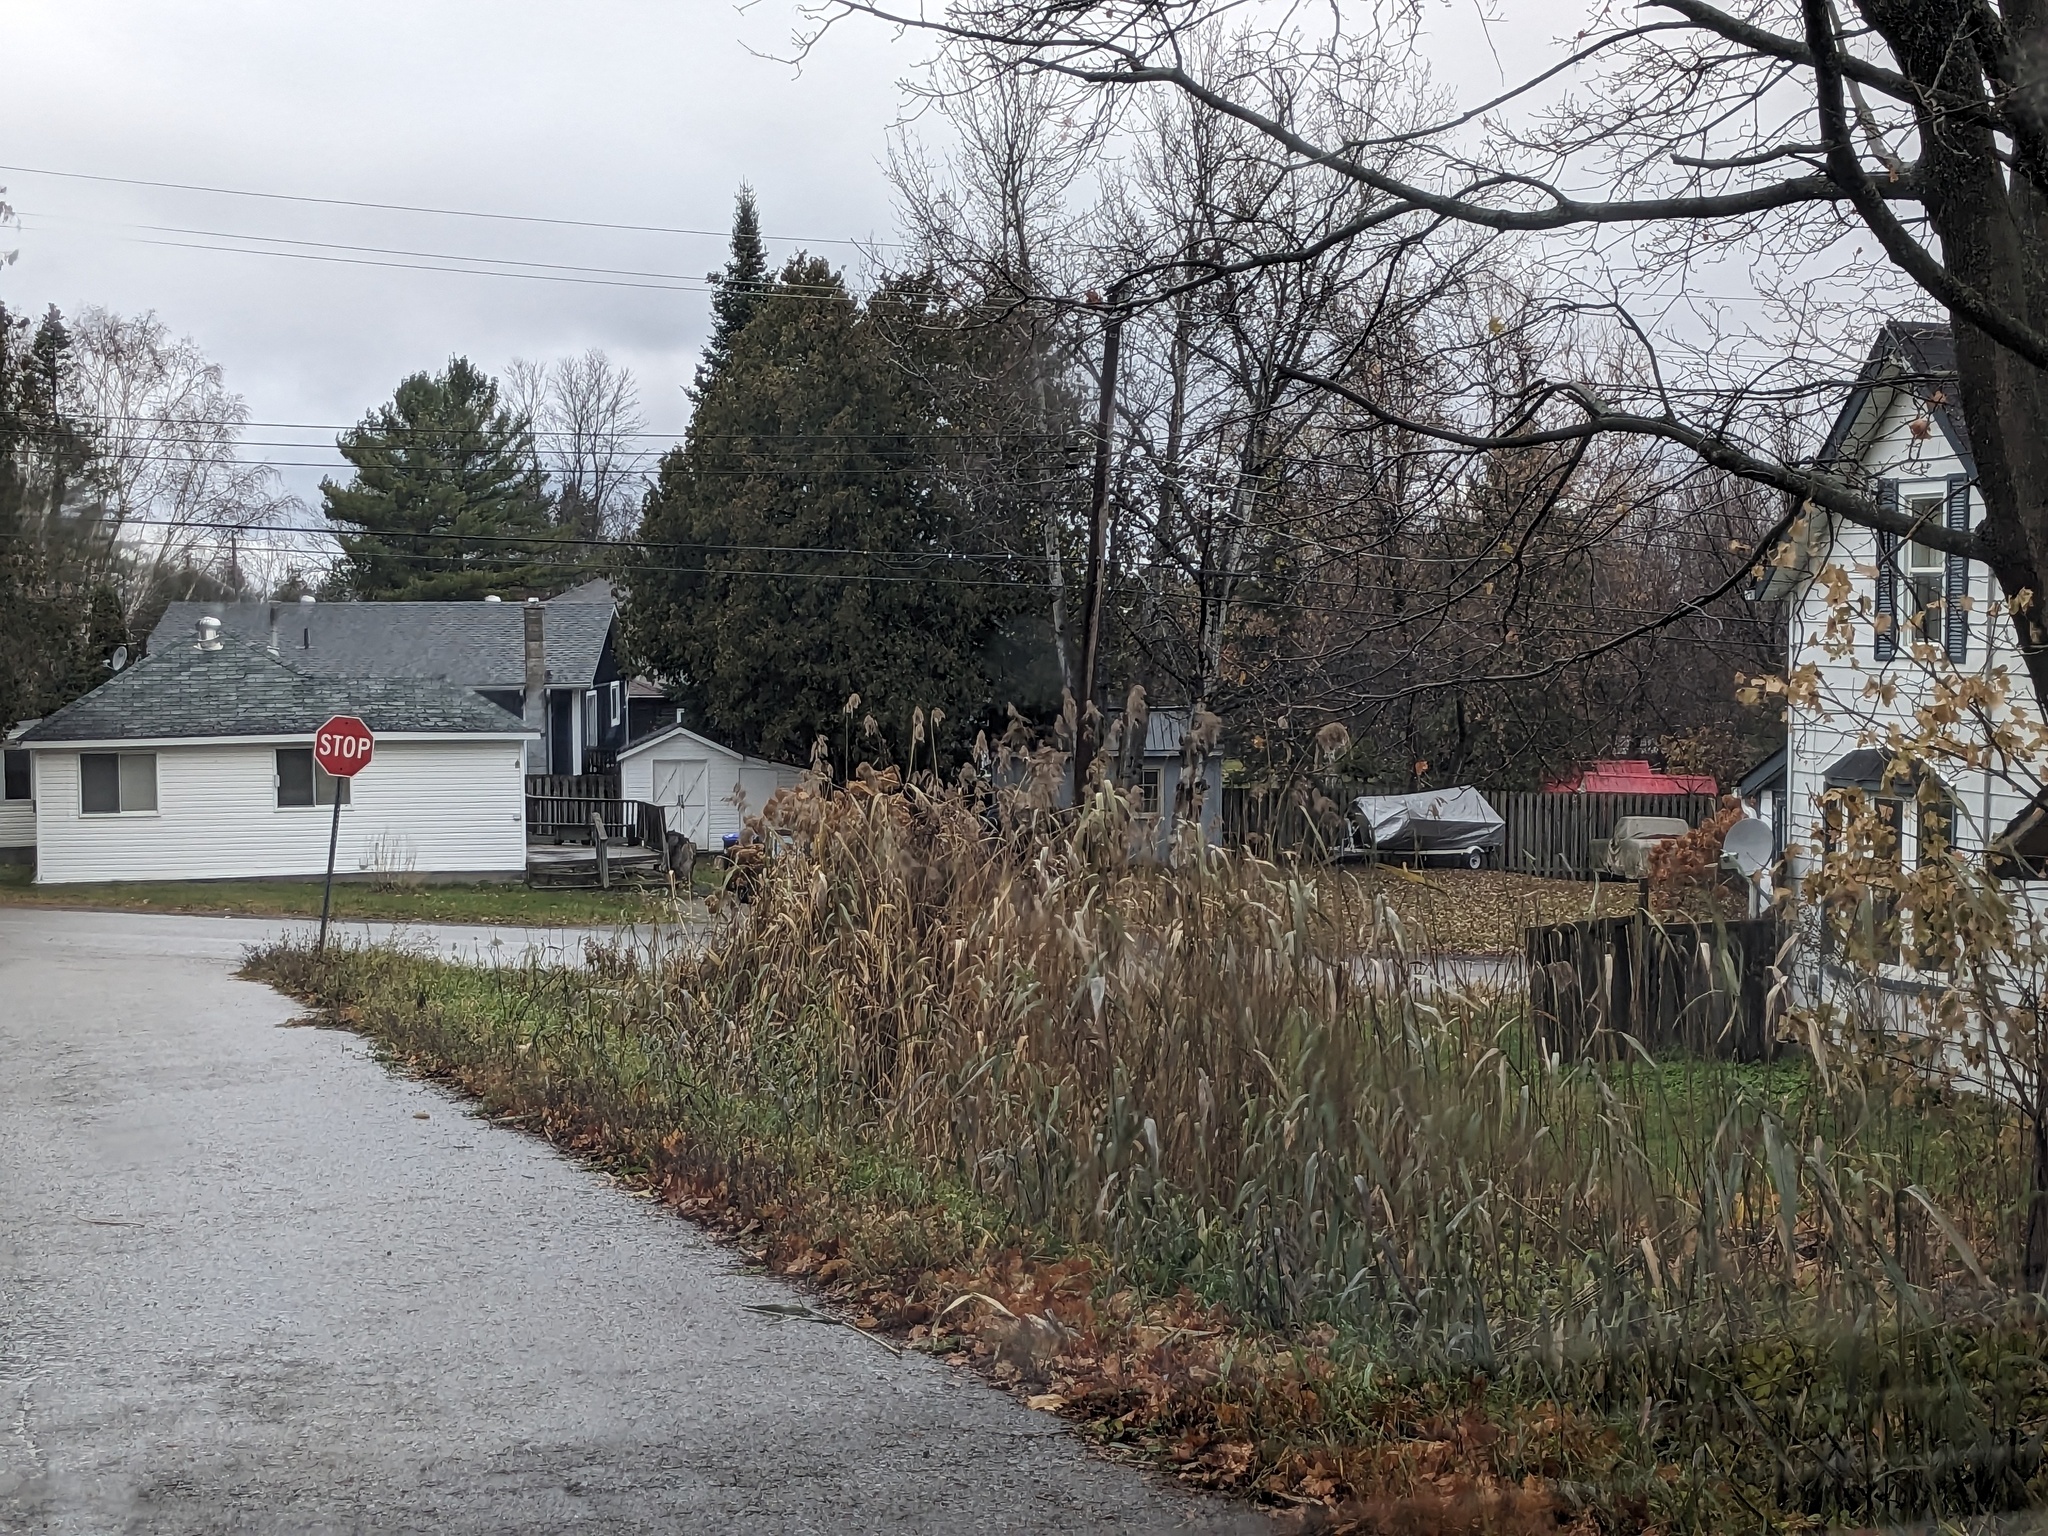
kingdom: Plantae
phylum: Tracheophyta
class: Liliopsida
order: Poales
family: Poaceae
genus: Phragmites
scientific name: Phragmites australis
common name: Common reed
